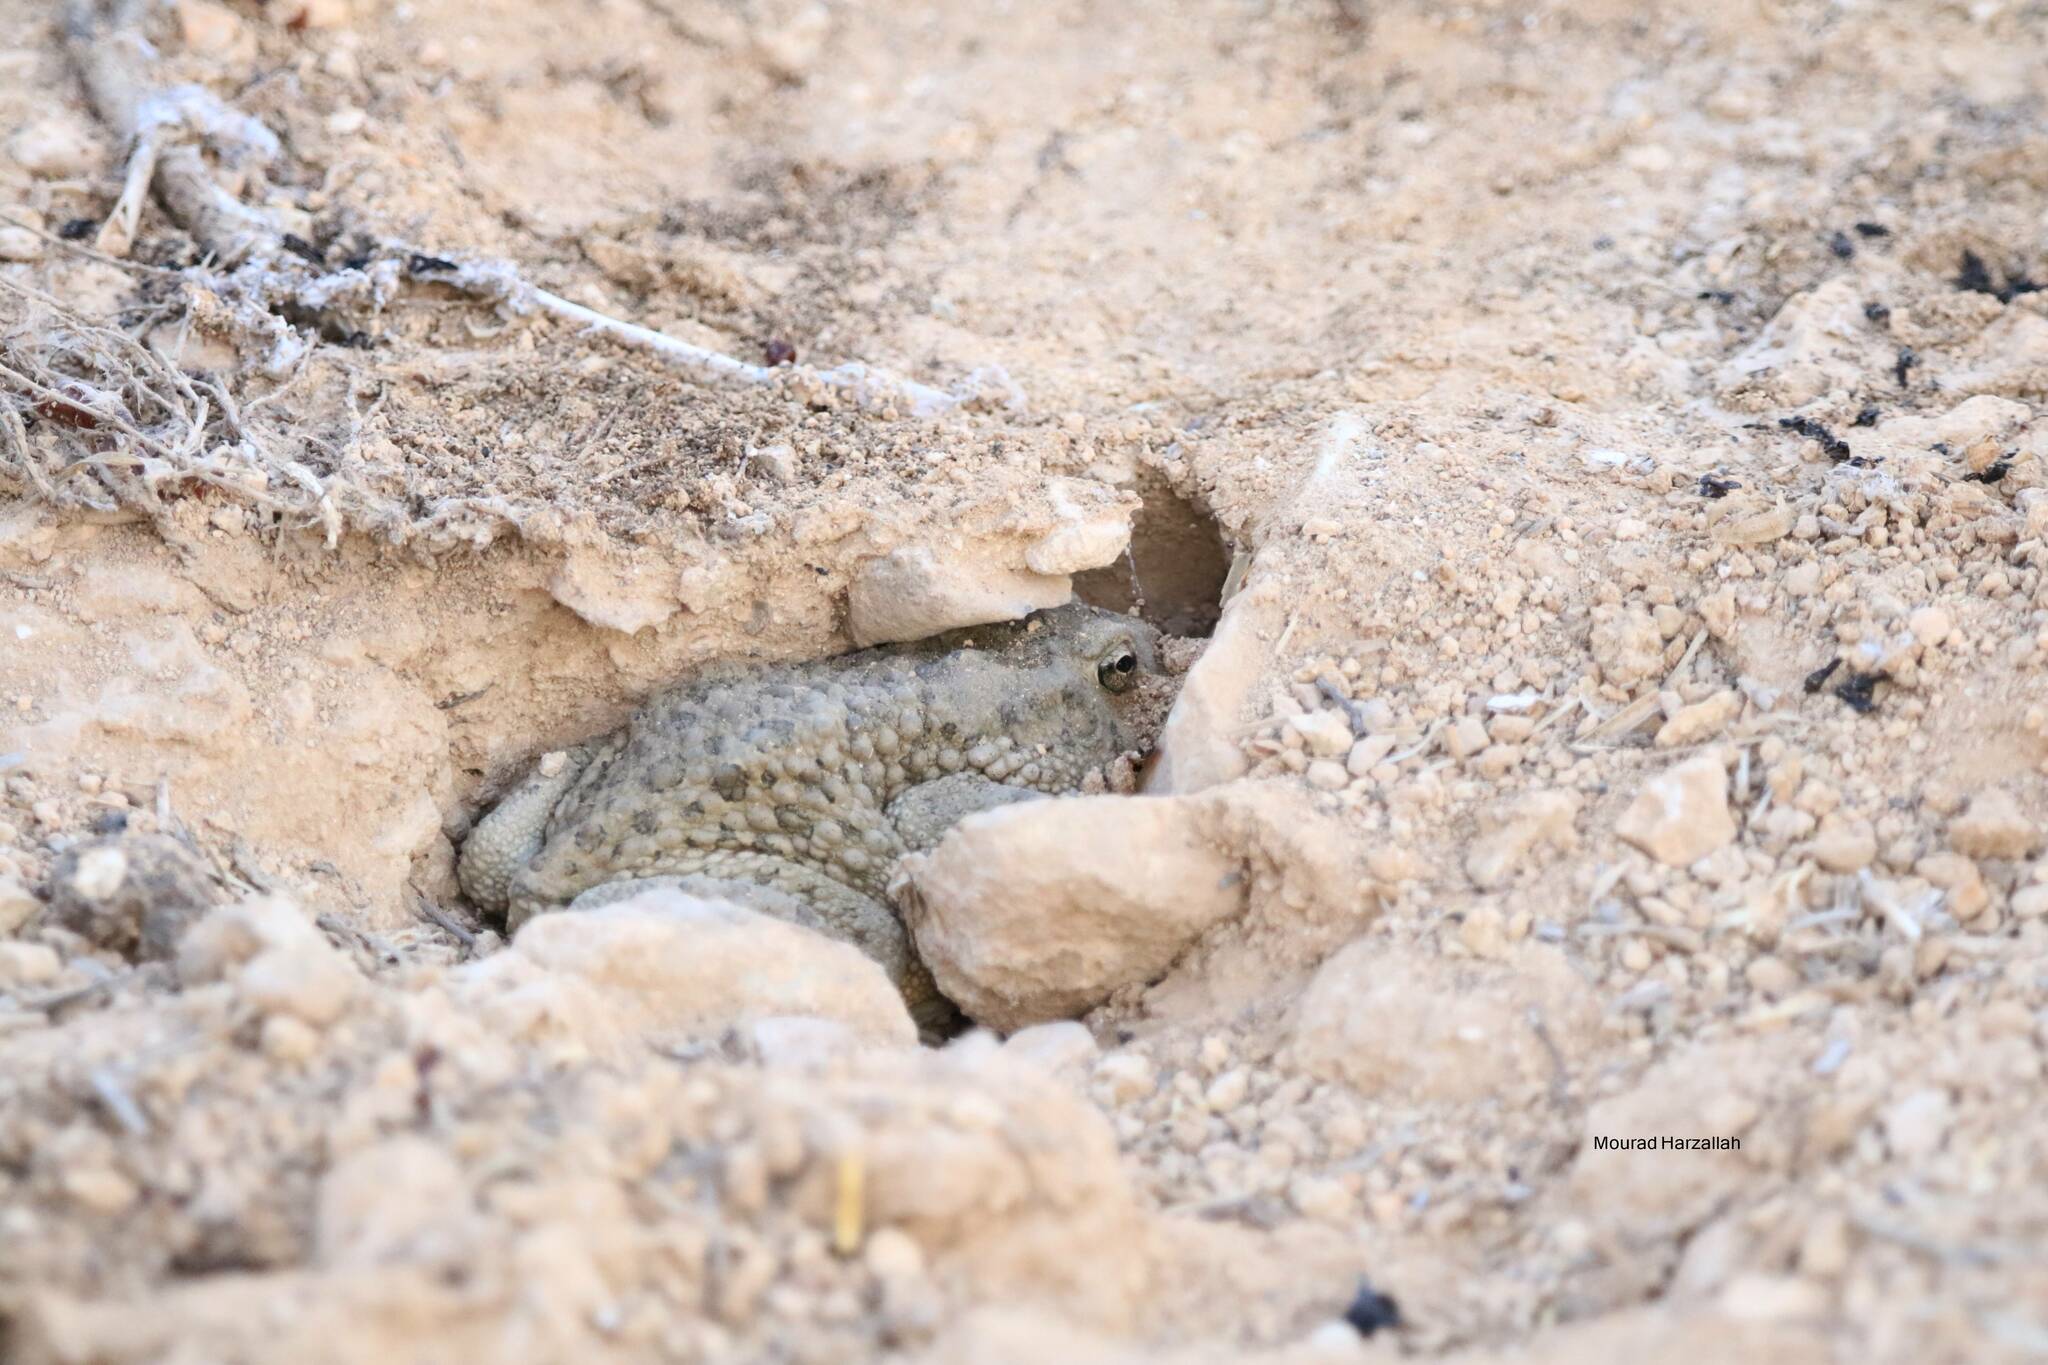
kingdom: Animalia
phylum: Chordata
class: Amphibia
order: Anura
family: Bufonidae
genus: Sclerophrys
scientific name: Sclerophrys mauritanica
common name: Berber toad
